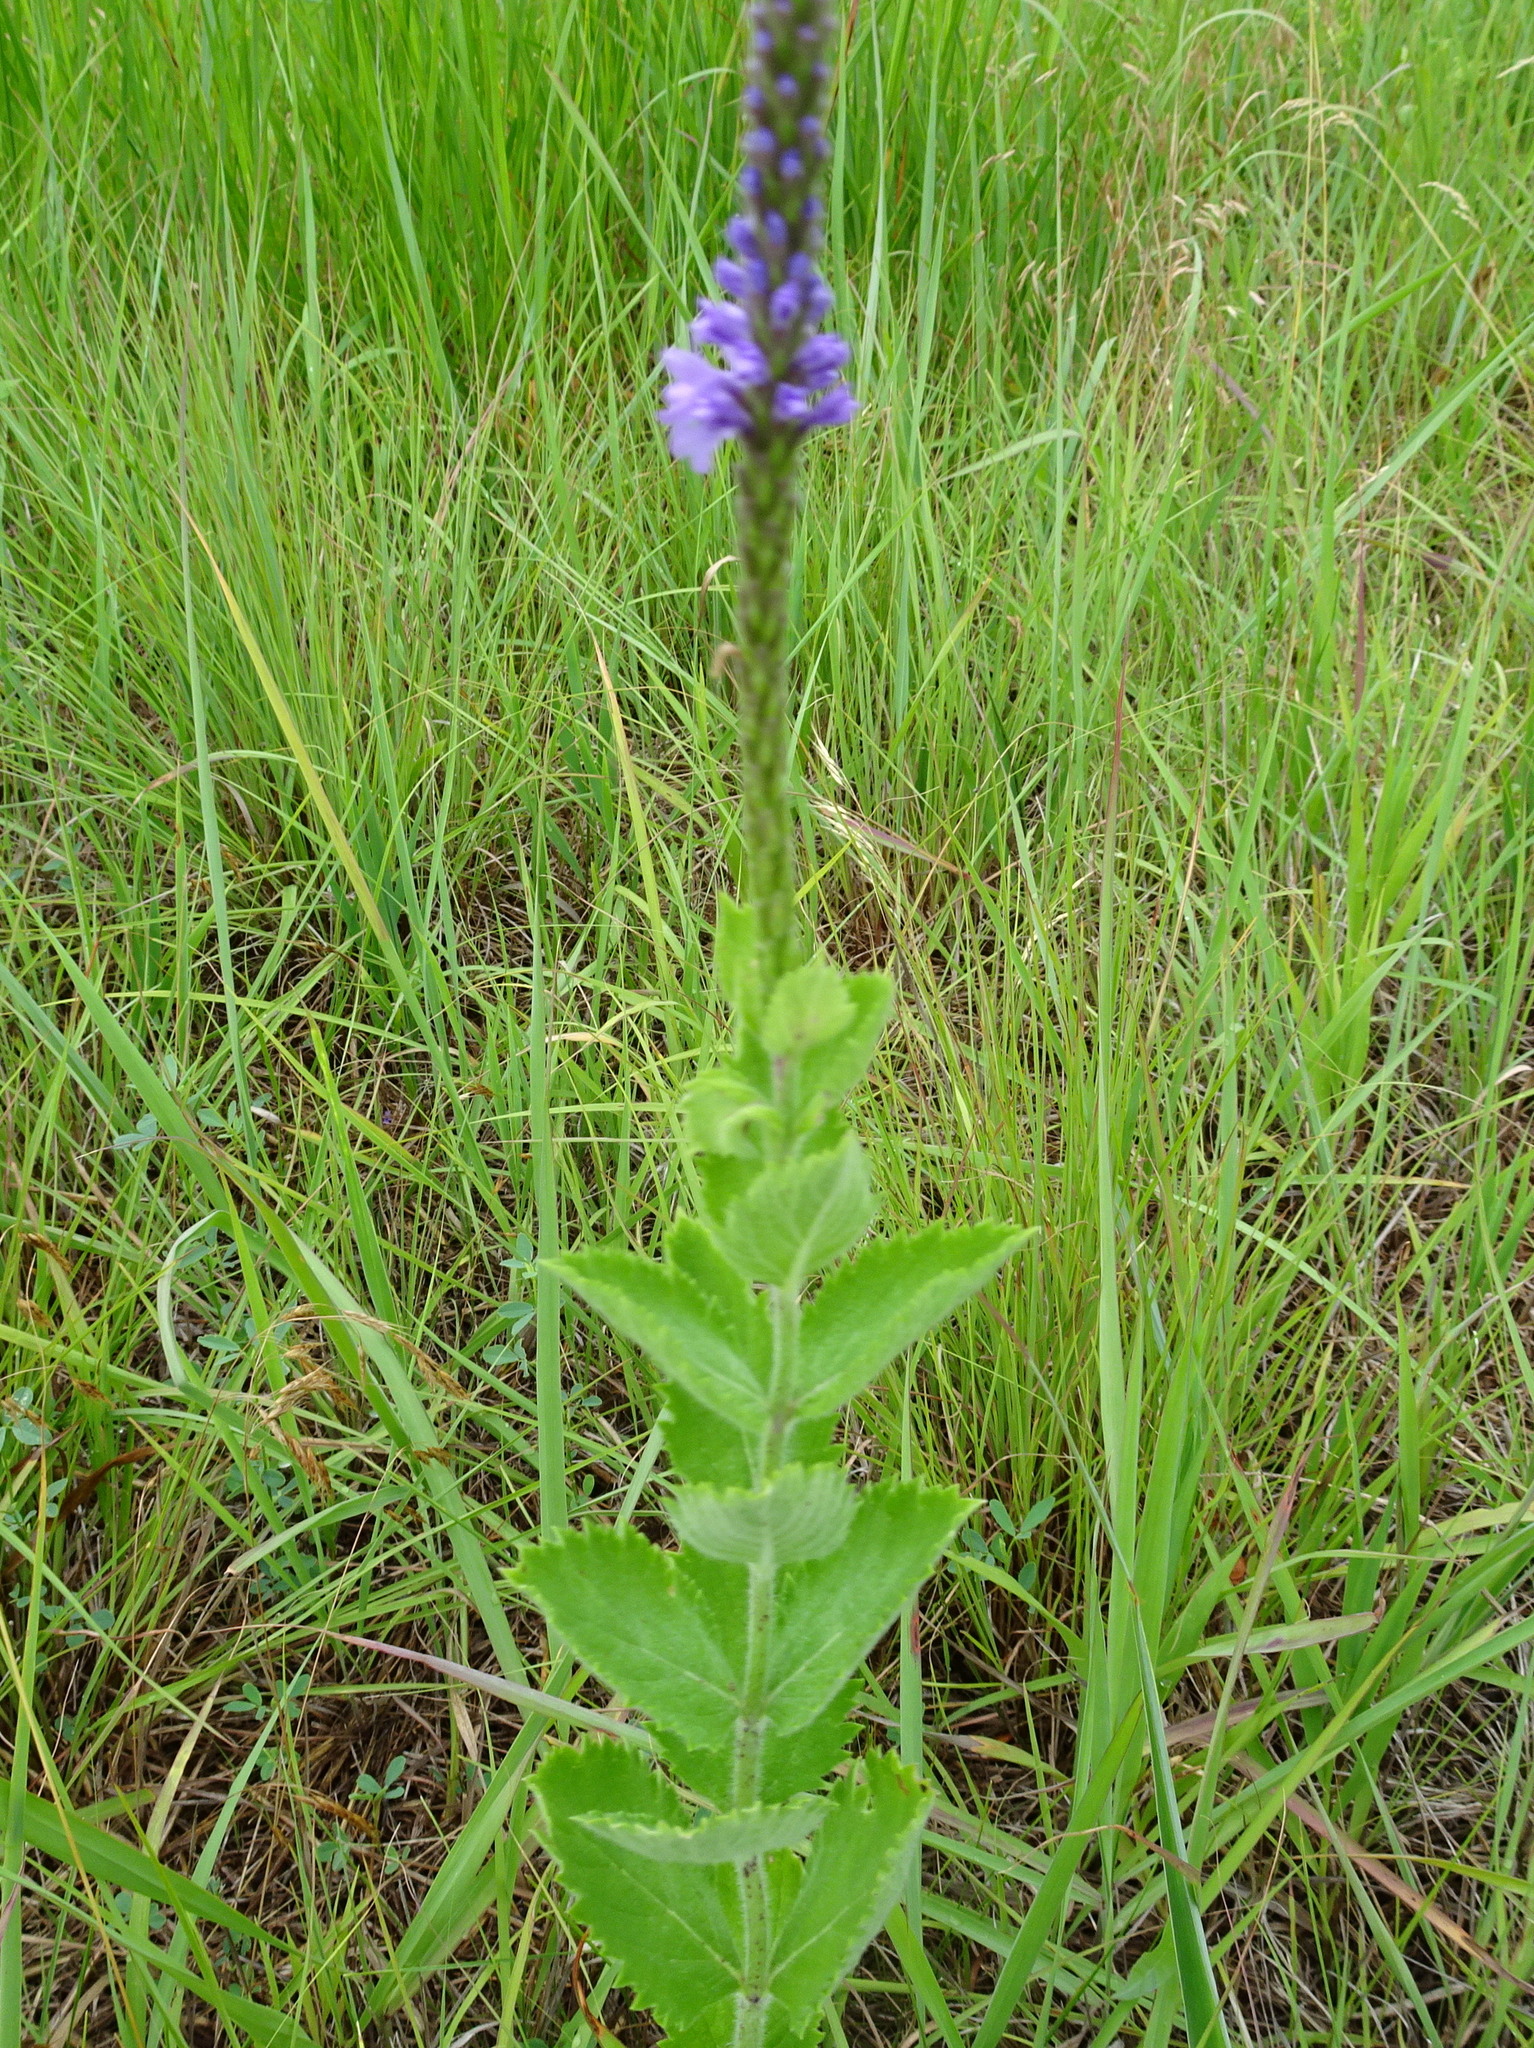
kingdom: Plantae
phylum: Tracheophyta
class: Magnoliopsida
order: Lamiales
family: Verbenaceae
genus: Verbena
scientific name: Verbena stricta
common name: Hoary vervain
